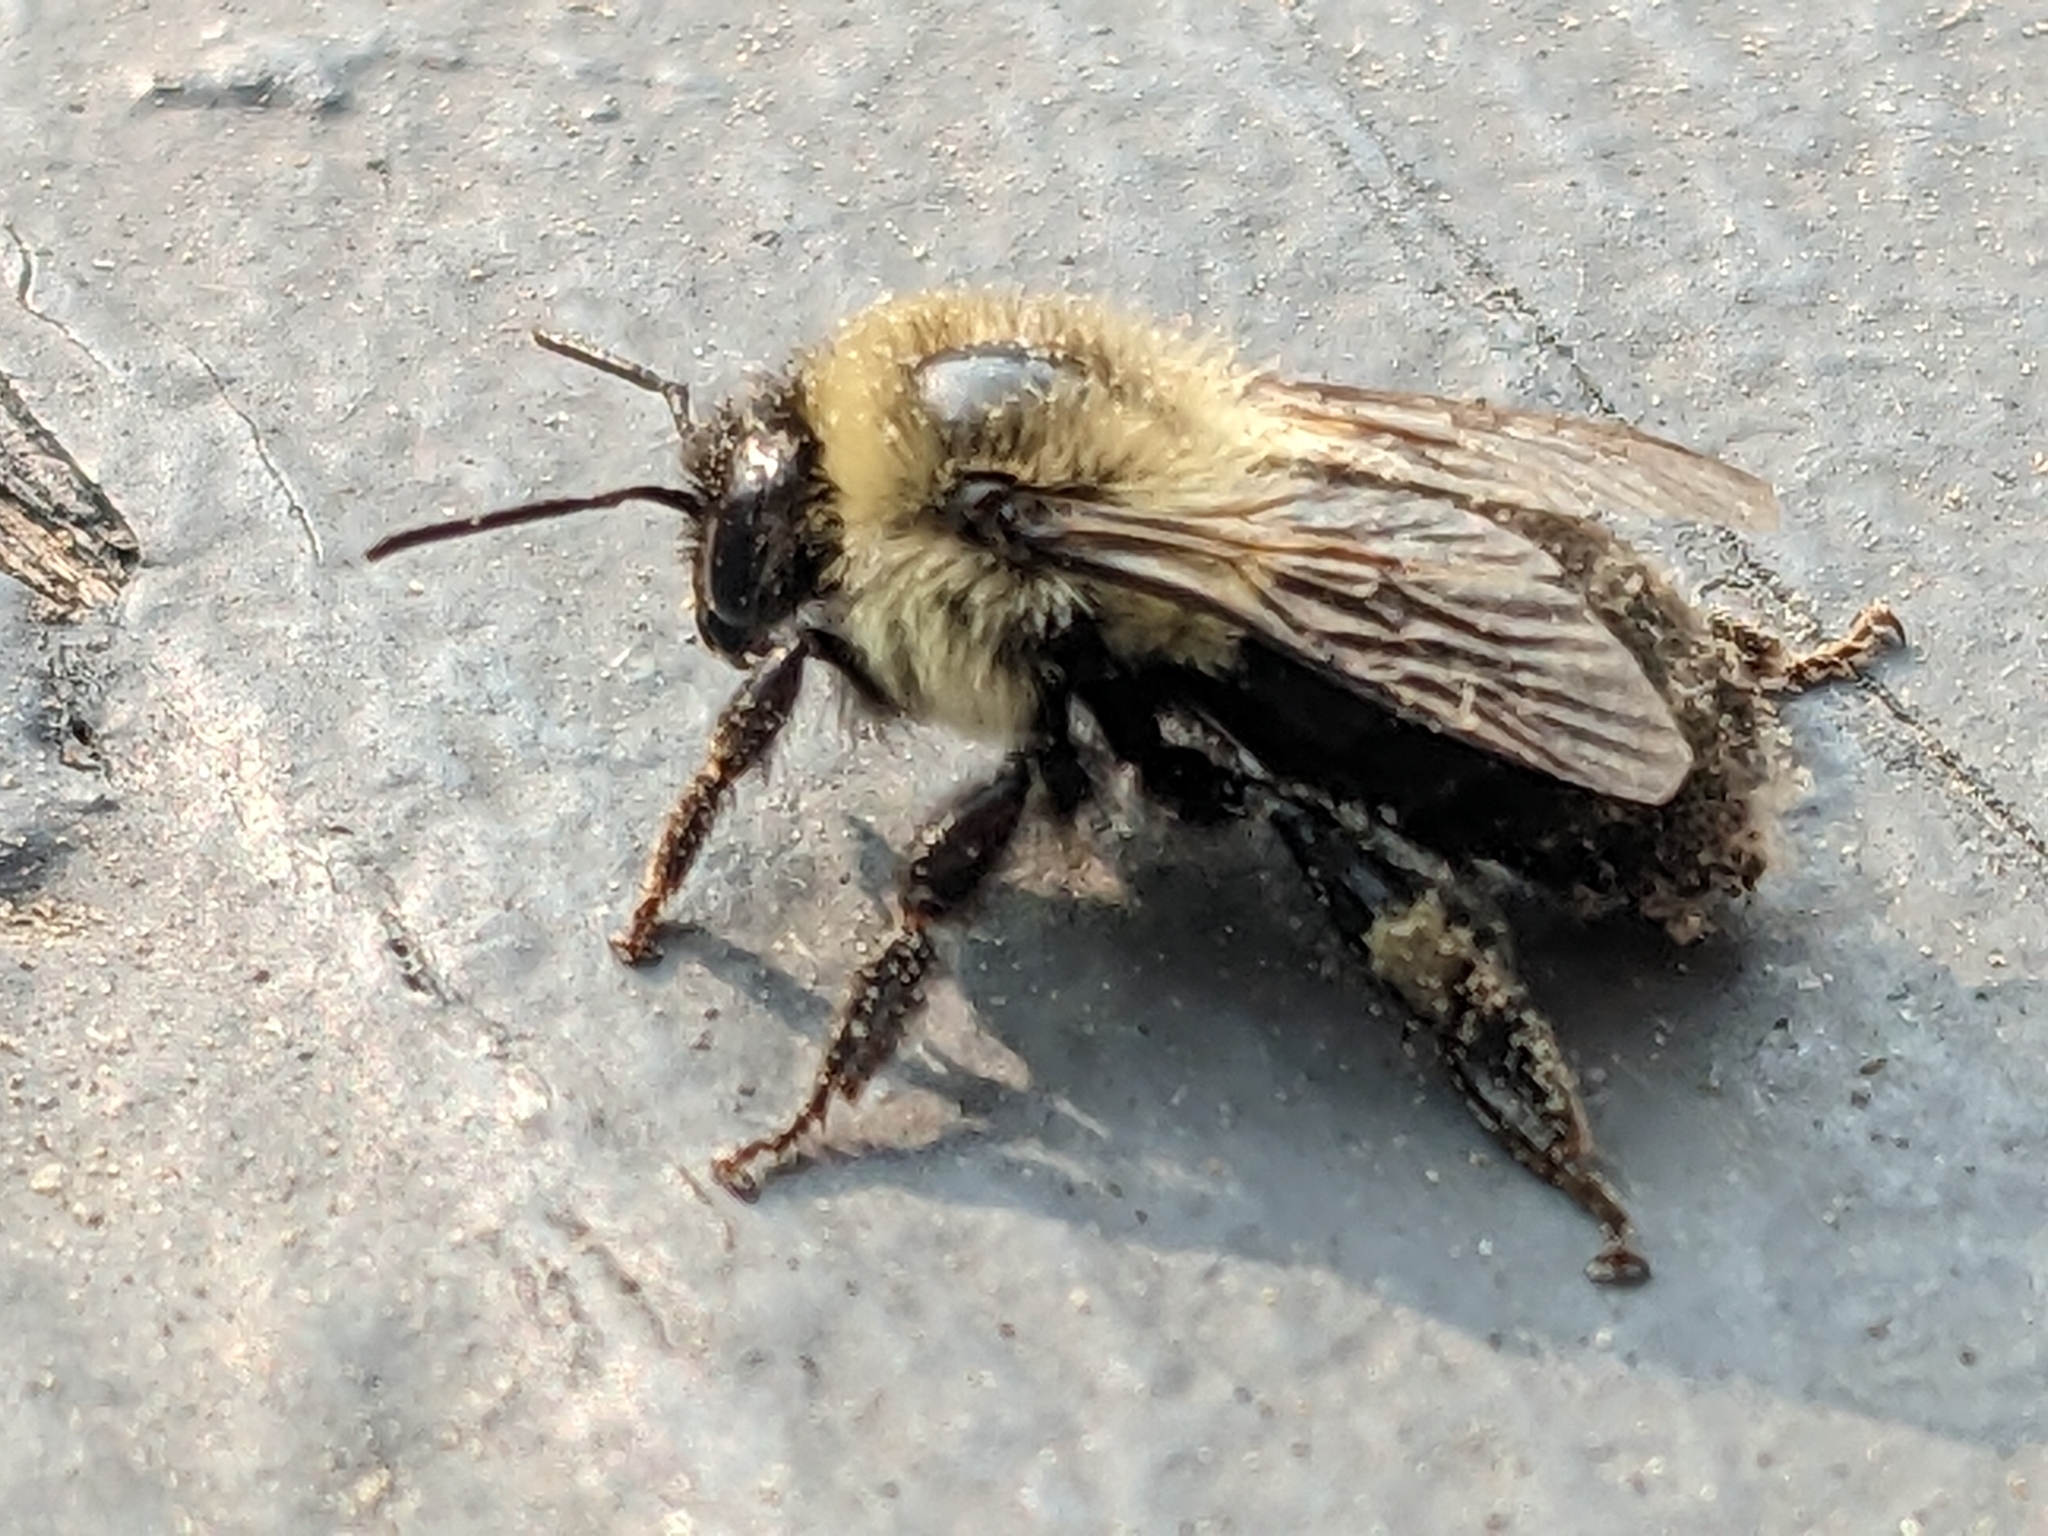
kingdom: Animalia
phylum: Arthropoda
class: Insecta
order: Hymenoptera
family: Apidae
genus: Bombus
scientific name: Bombus impatiens
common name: Common eastern bumble bee
